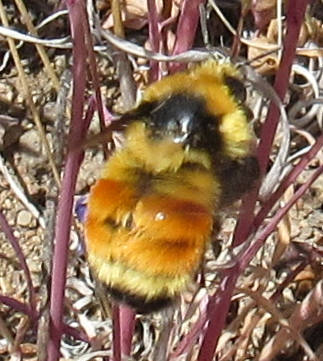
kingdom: Animalia
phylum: Arthropoda
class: Insecta
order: Hymenoptera
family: Apidae
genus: Bombus
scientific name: Bombus huntii
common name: Hunt bumble bee
